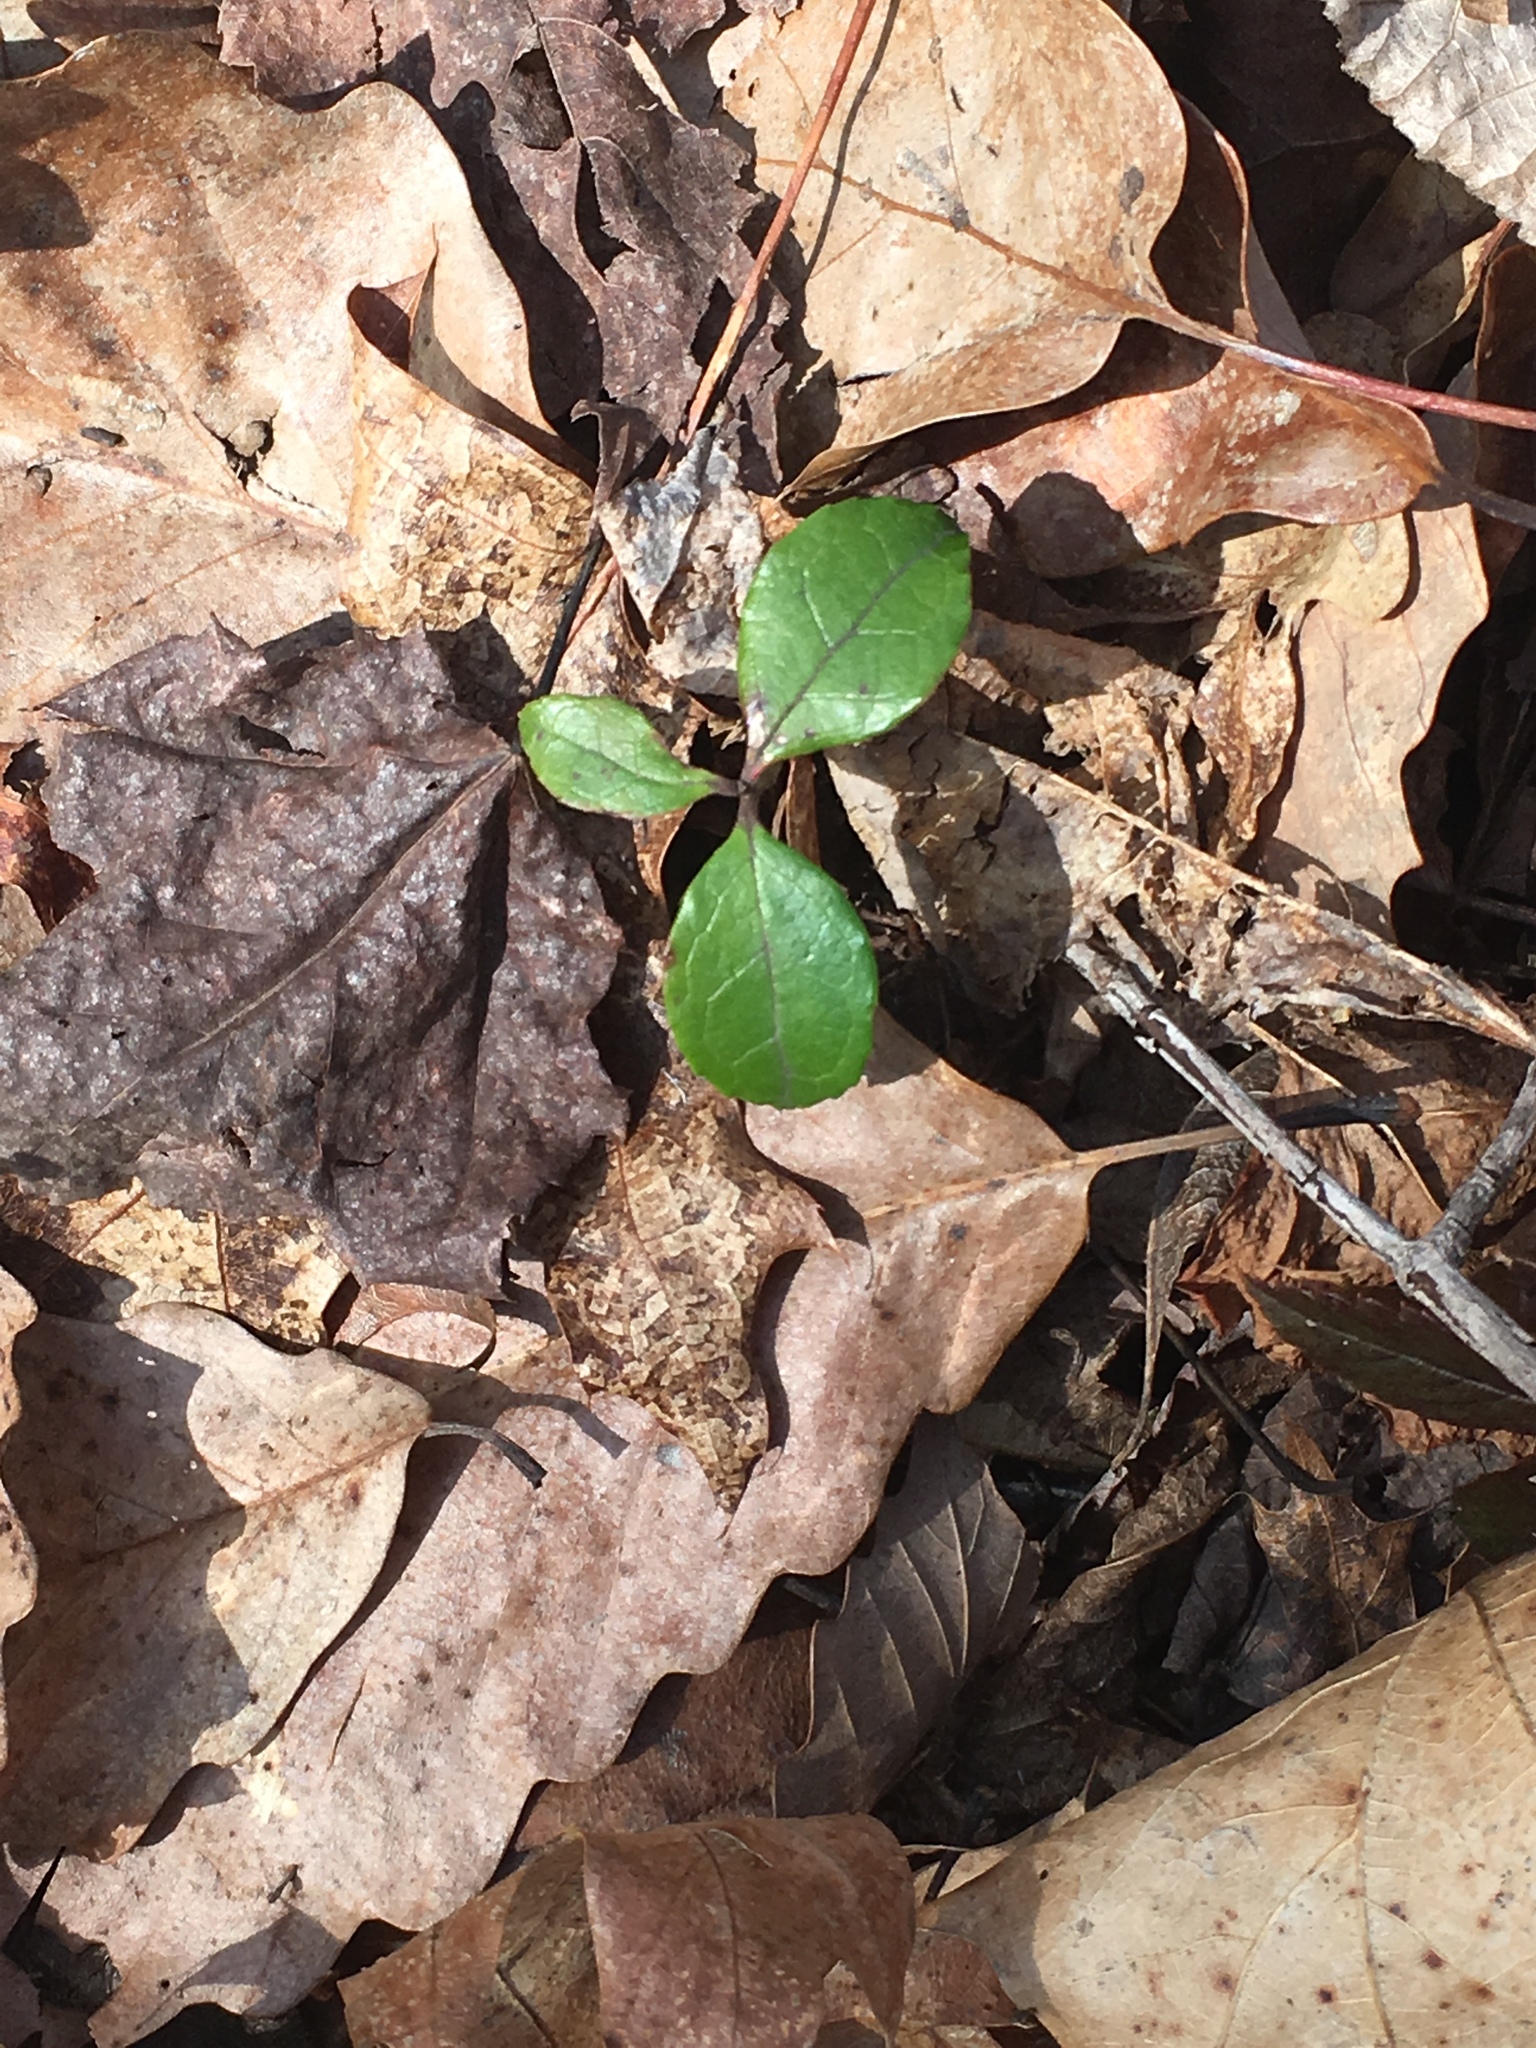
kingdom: Plantae
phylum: Tracheophyta
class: Magnoliopsida
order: Ericales
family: Ericaceae
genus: Gaultheria
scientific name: Gaultheria procumbens
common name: Checkerberry
